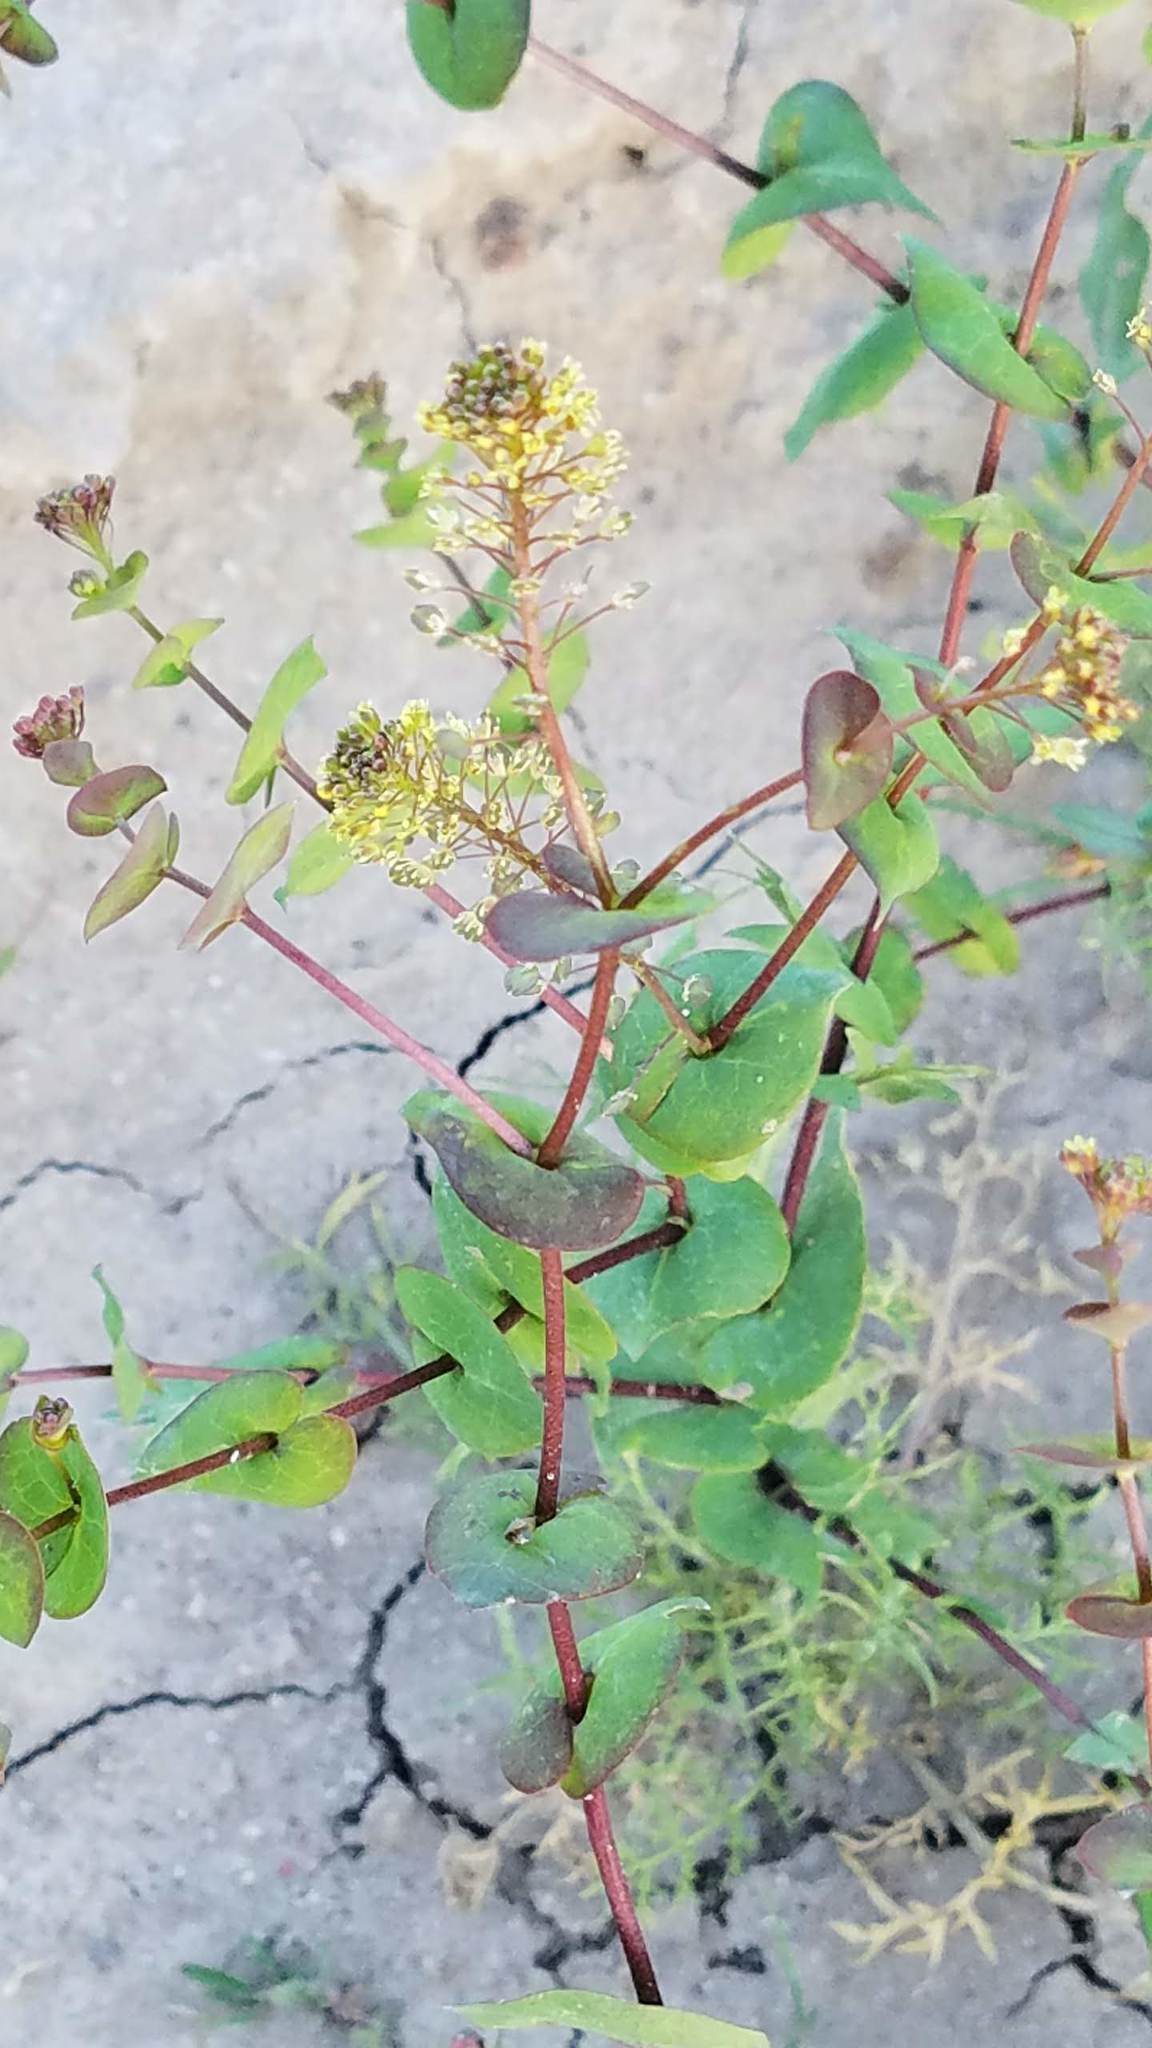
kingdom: Plantae
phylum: Tracheophyta
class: Magnoliopsida
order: Brassicales
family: Brassicaceae
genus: Lepidium
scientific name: Lepidium perfoliatum
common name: Perfoliate pepperwort
